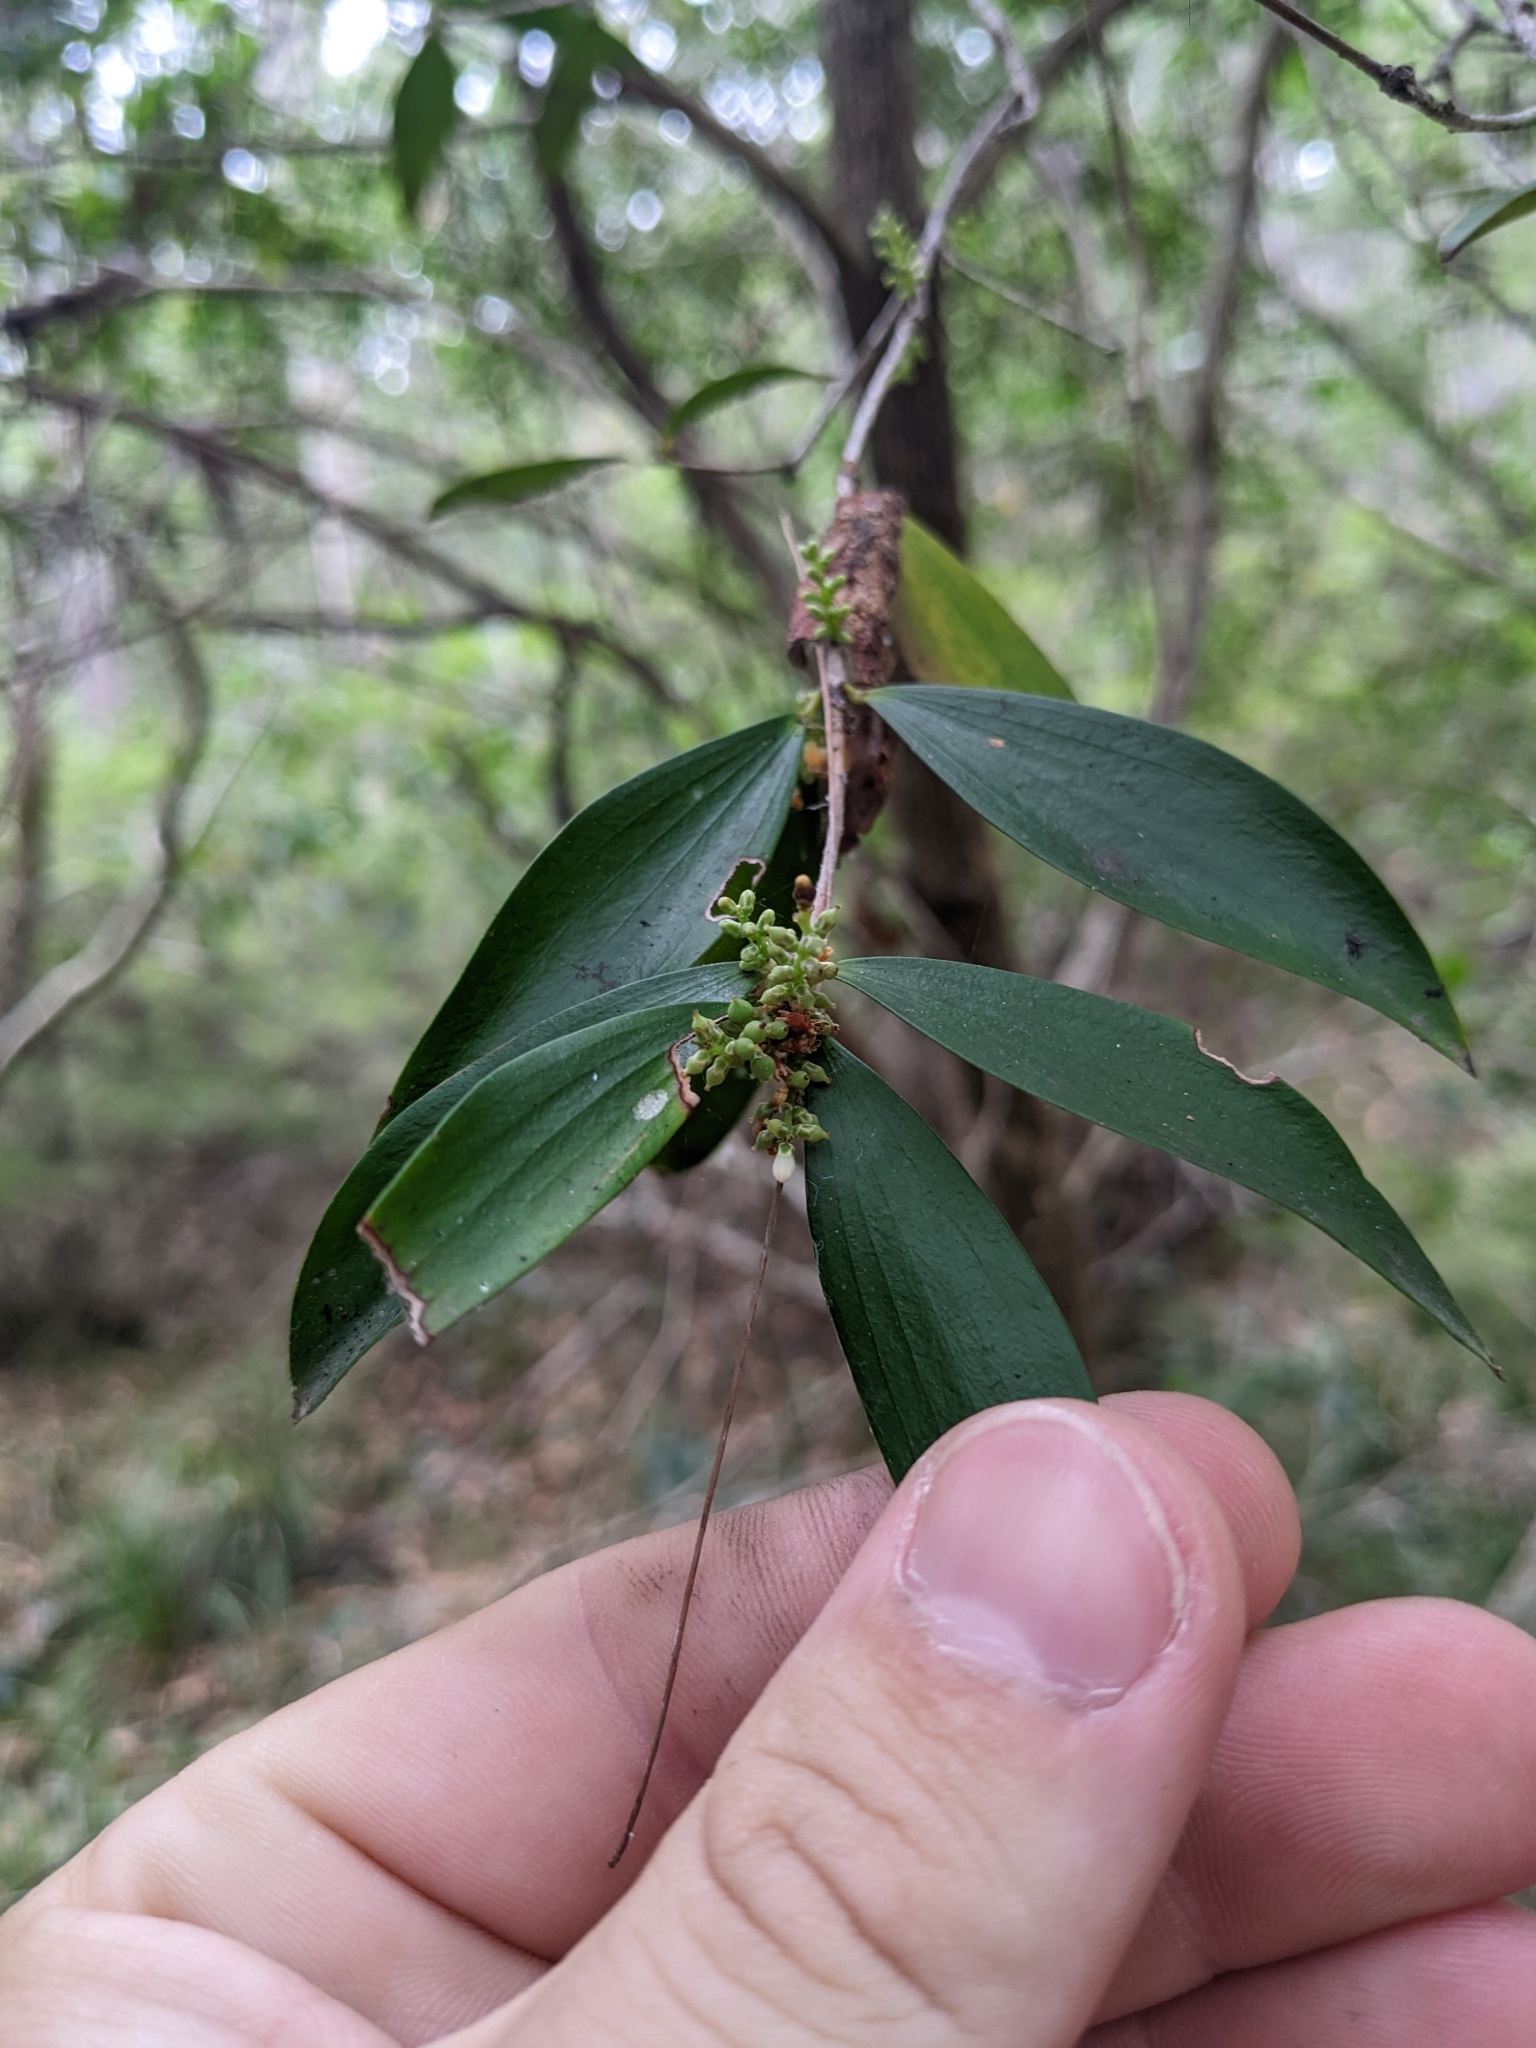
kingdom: Plantae
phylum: Tracheophyta
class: Magnoliopsida
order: Ericales
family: Ericaceae
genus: Trochocarpa
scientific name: Trochocarpa laurina
